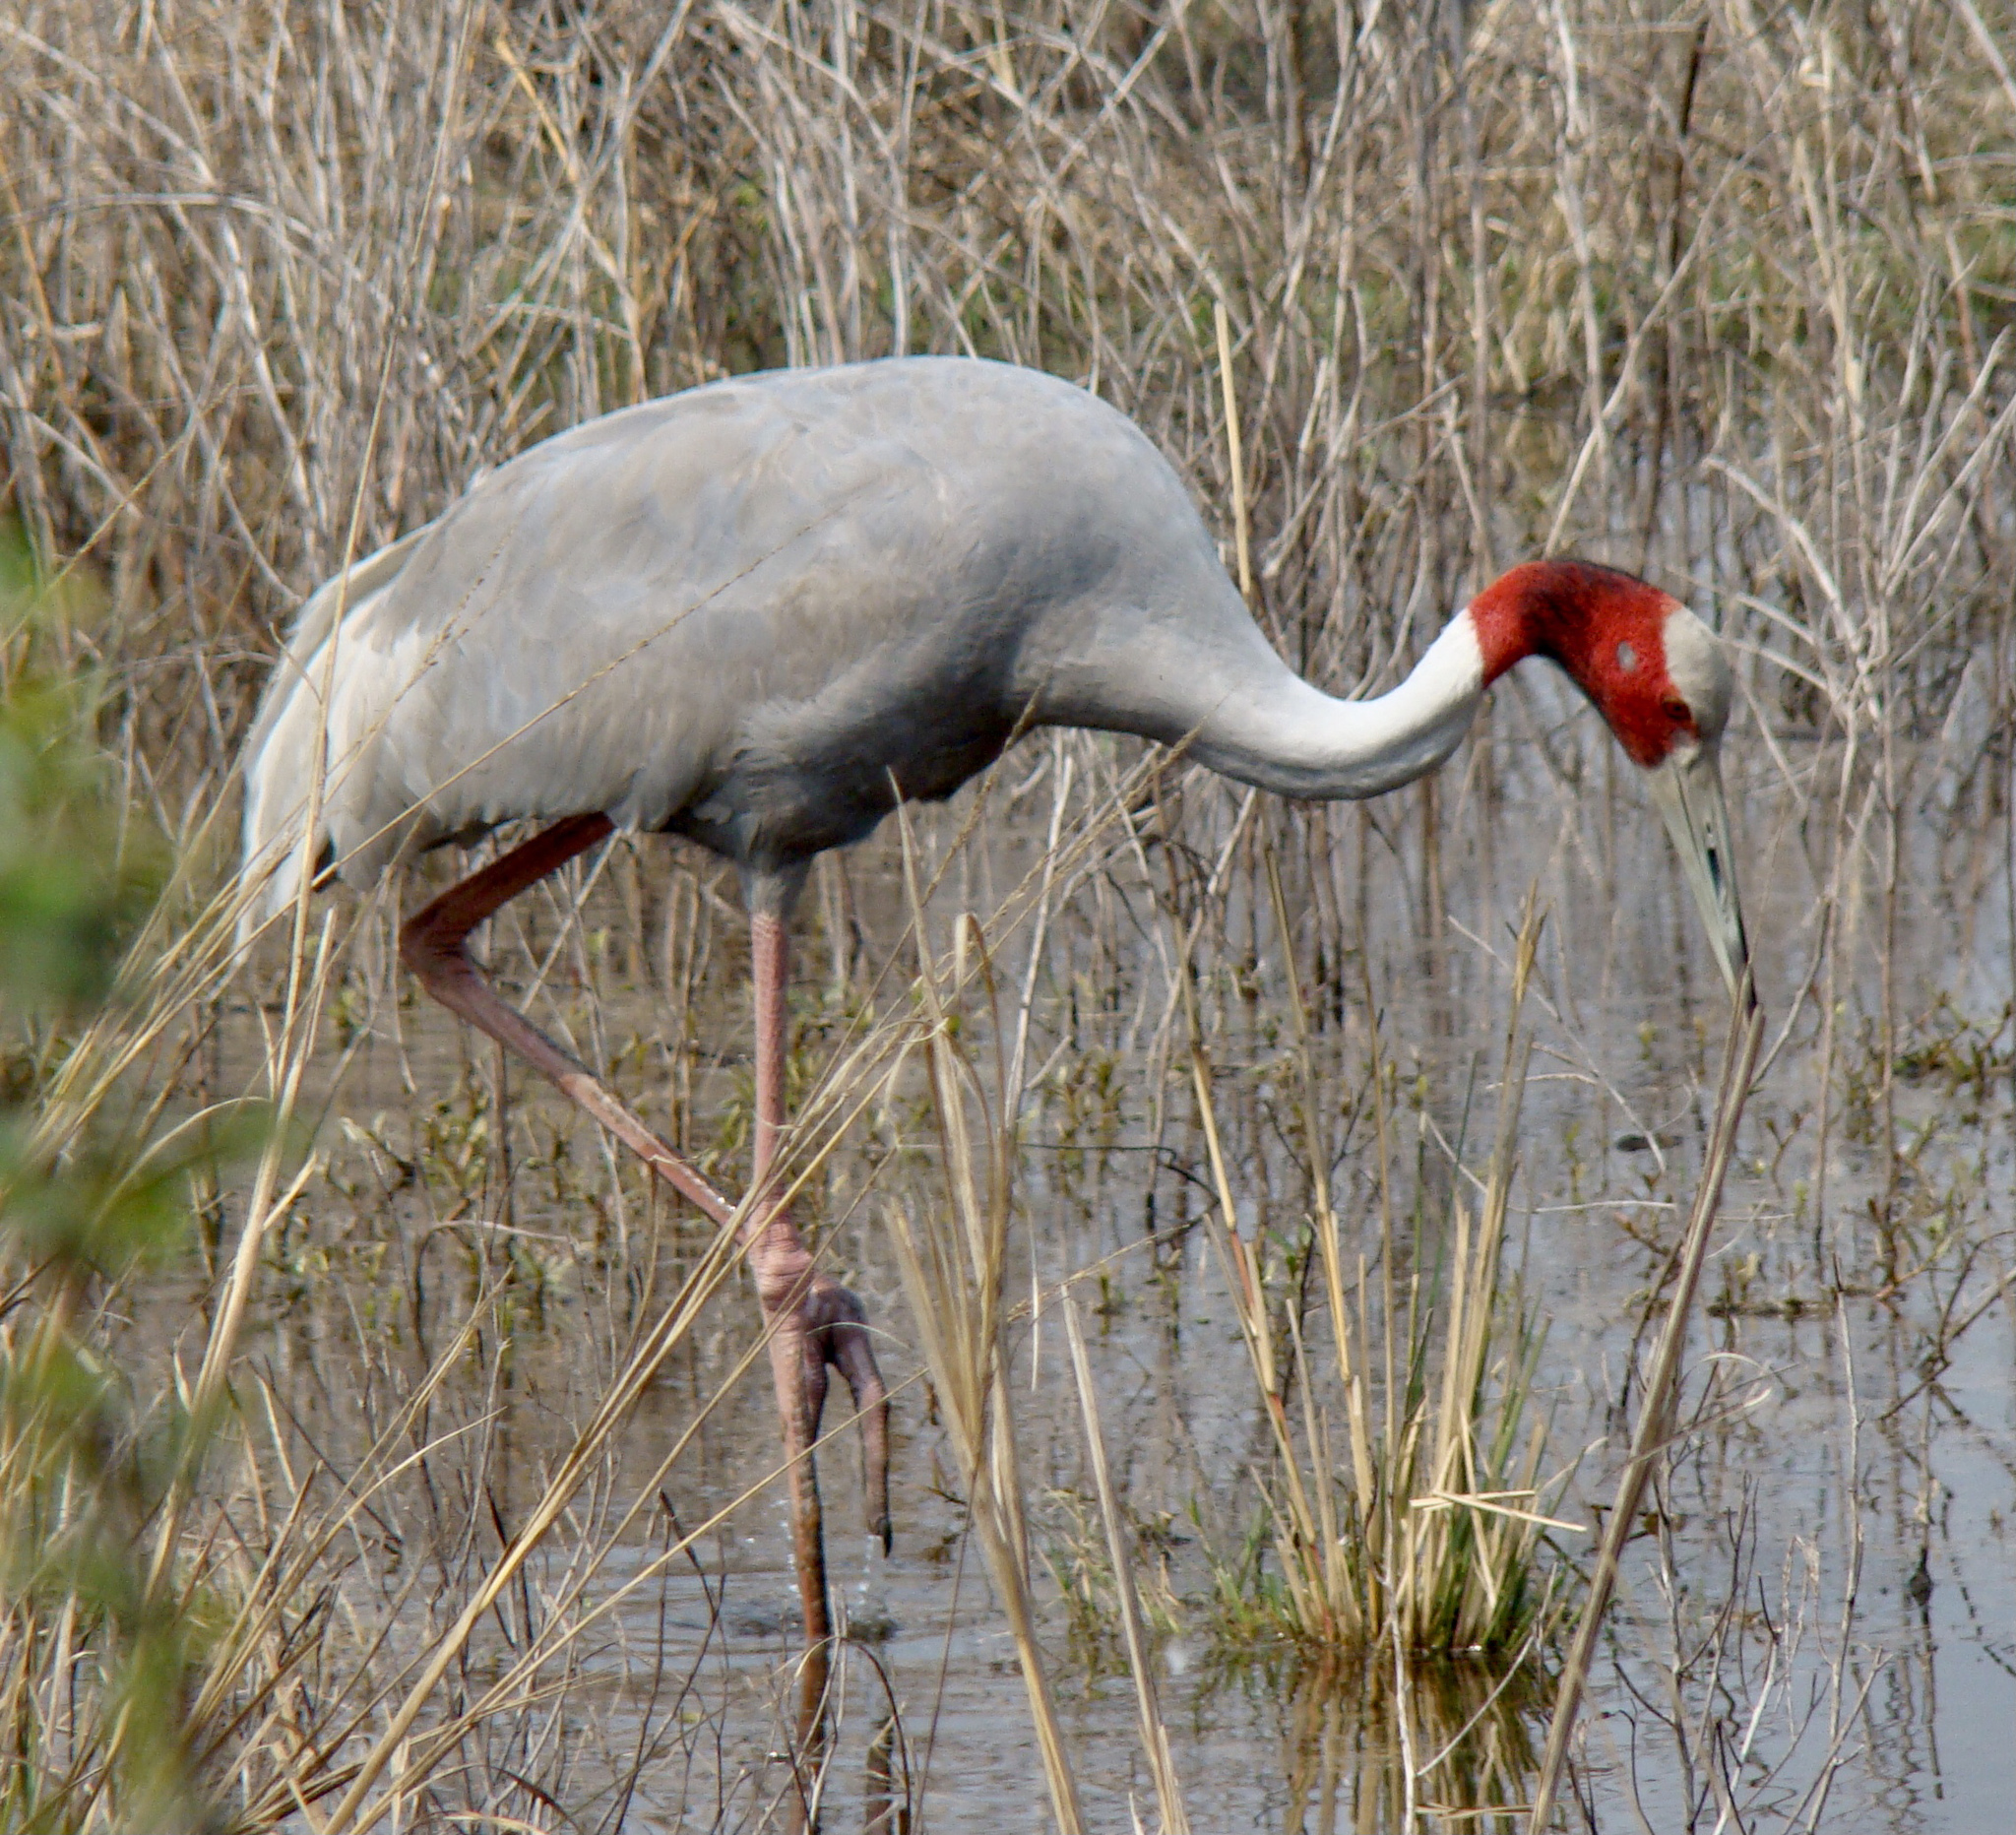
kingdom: Animalia
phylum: Chordata
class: Aves
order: Gruiformes
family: Gruidae
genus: Grus
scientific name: Grus antigone
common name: Sarus crane
